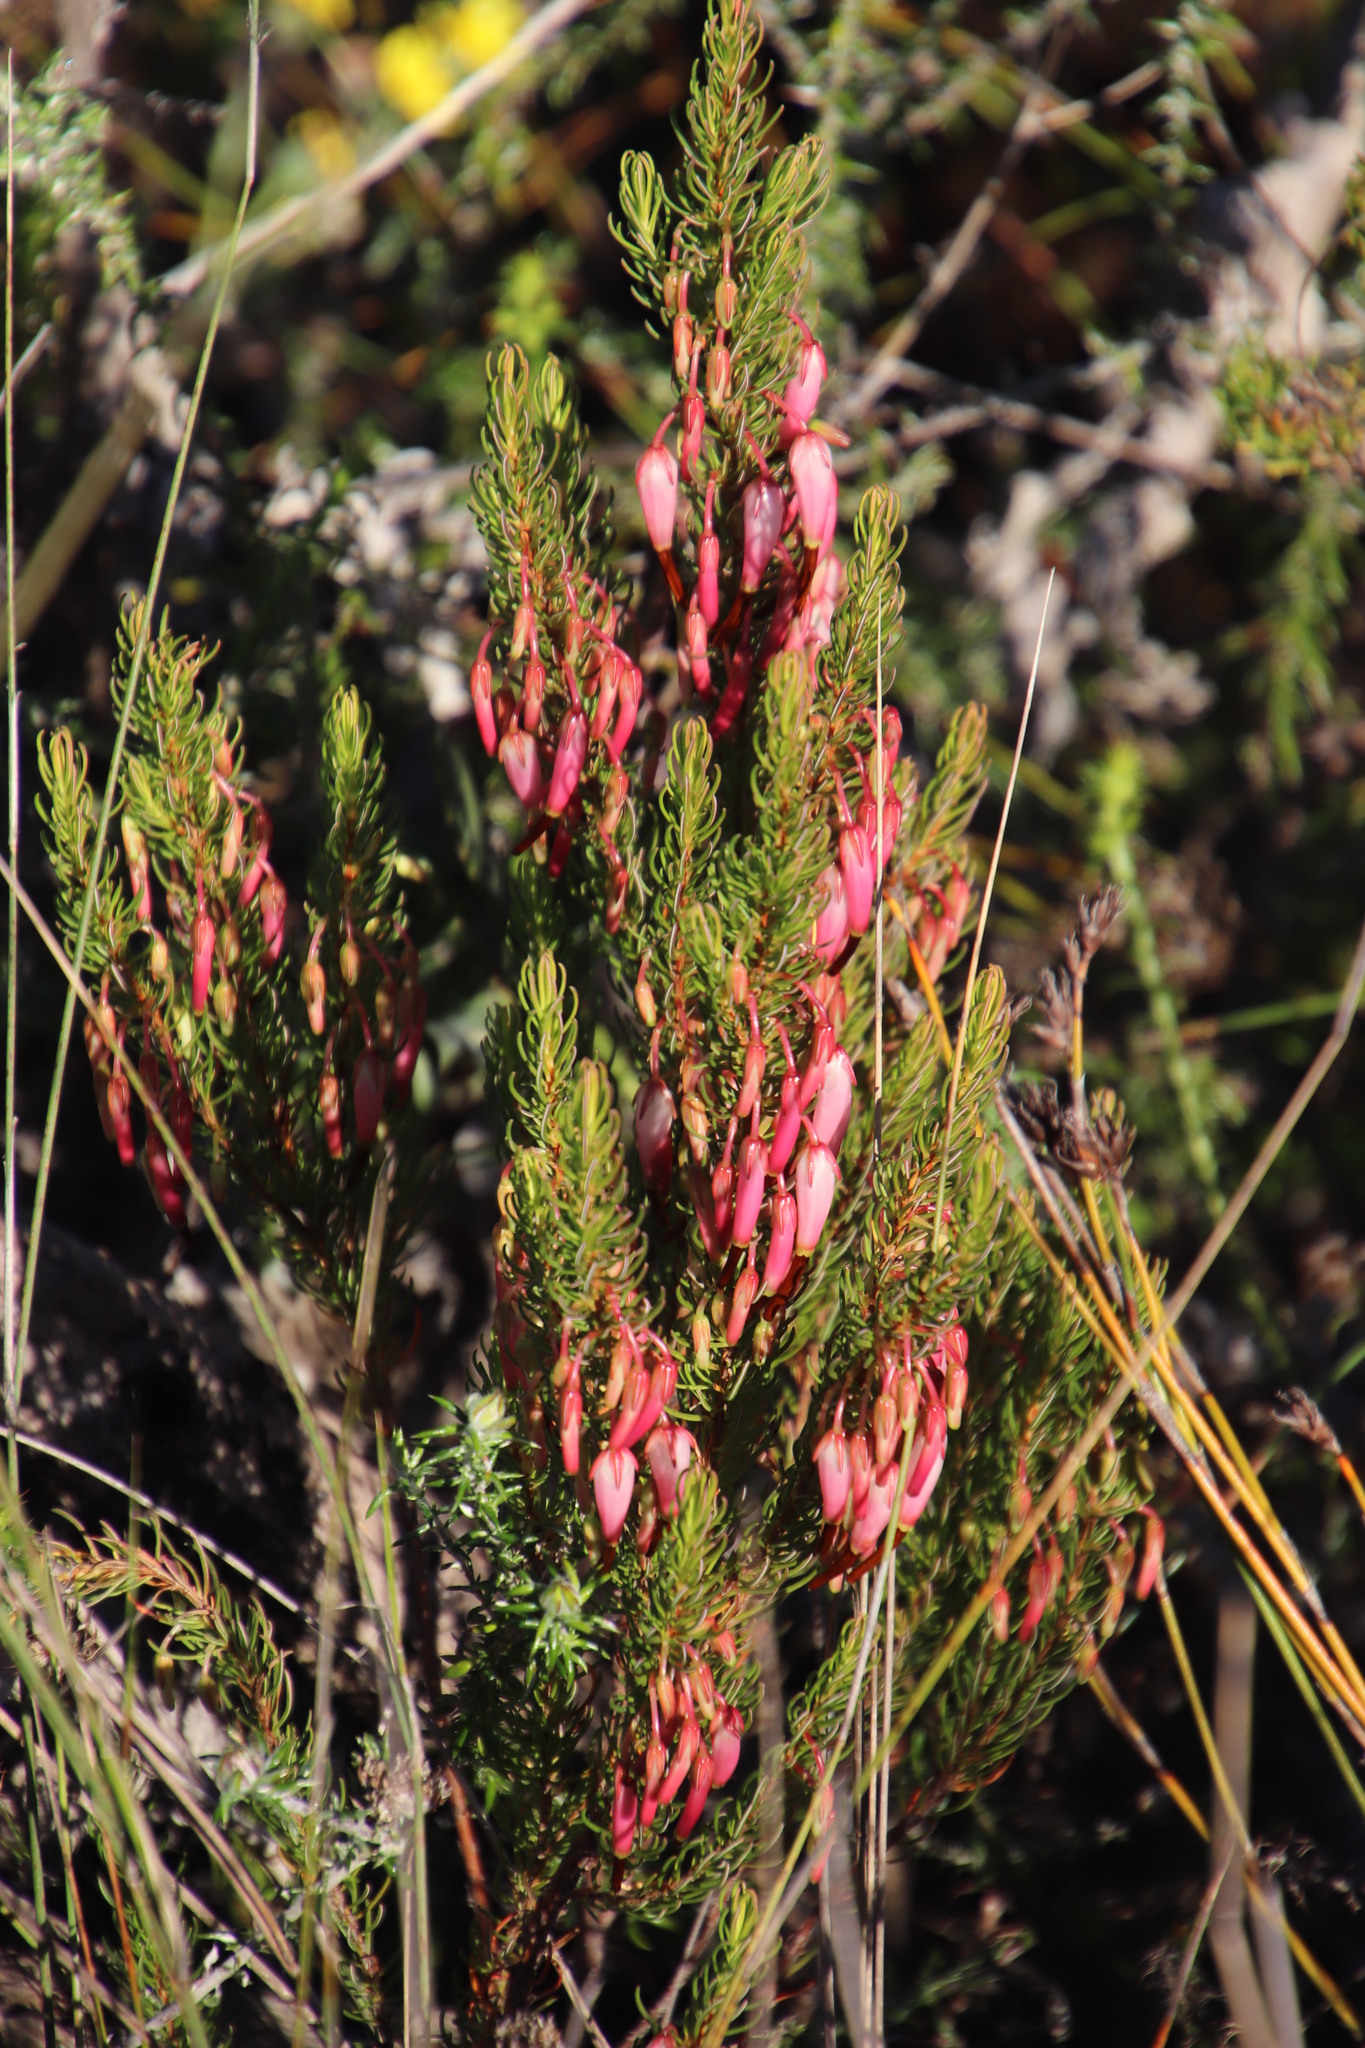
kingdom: Plantae
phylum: Tracheophyta
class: Magnoliopsida
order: Ericales
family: Ericaceae
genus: Erica
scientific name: Erica plukenetii
